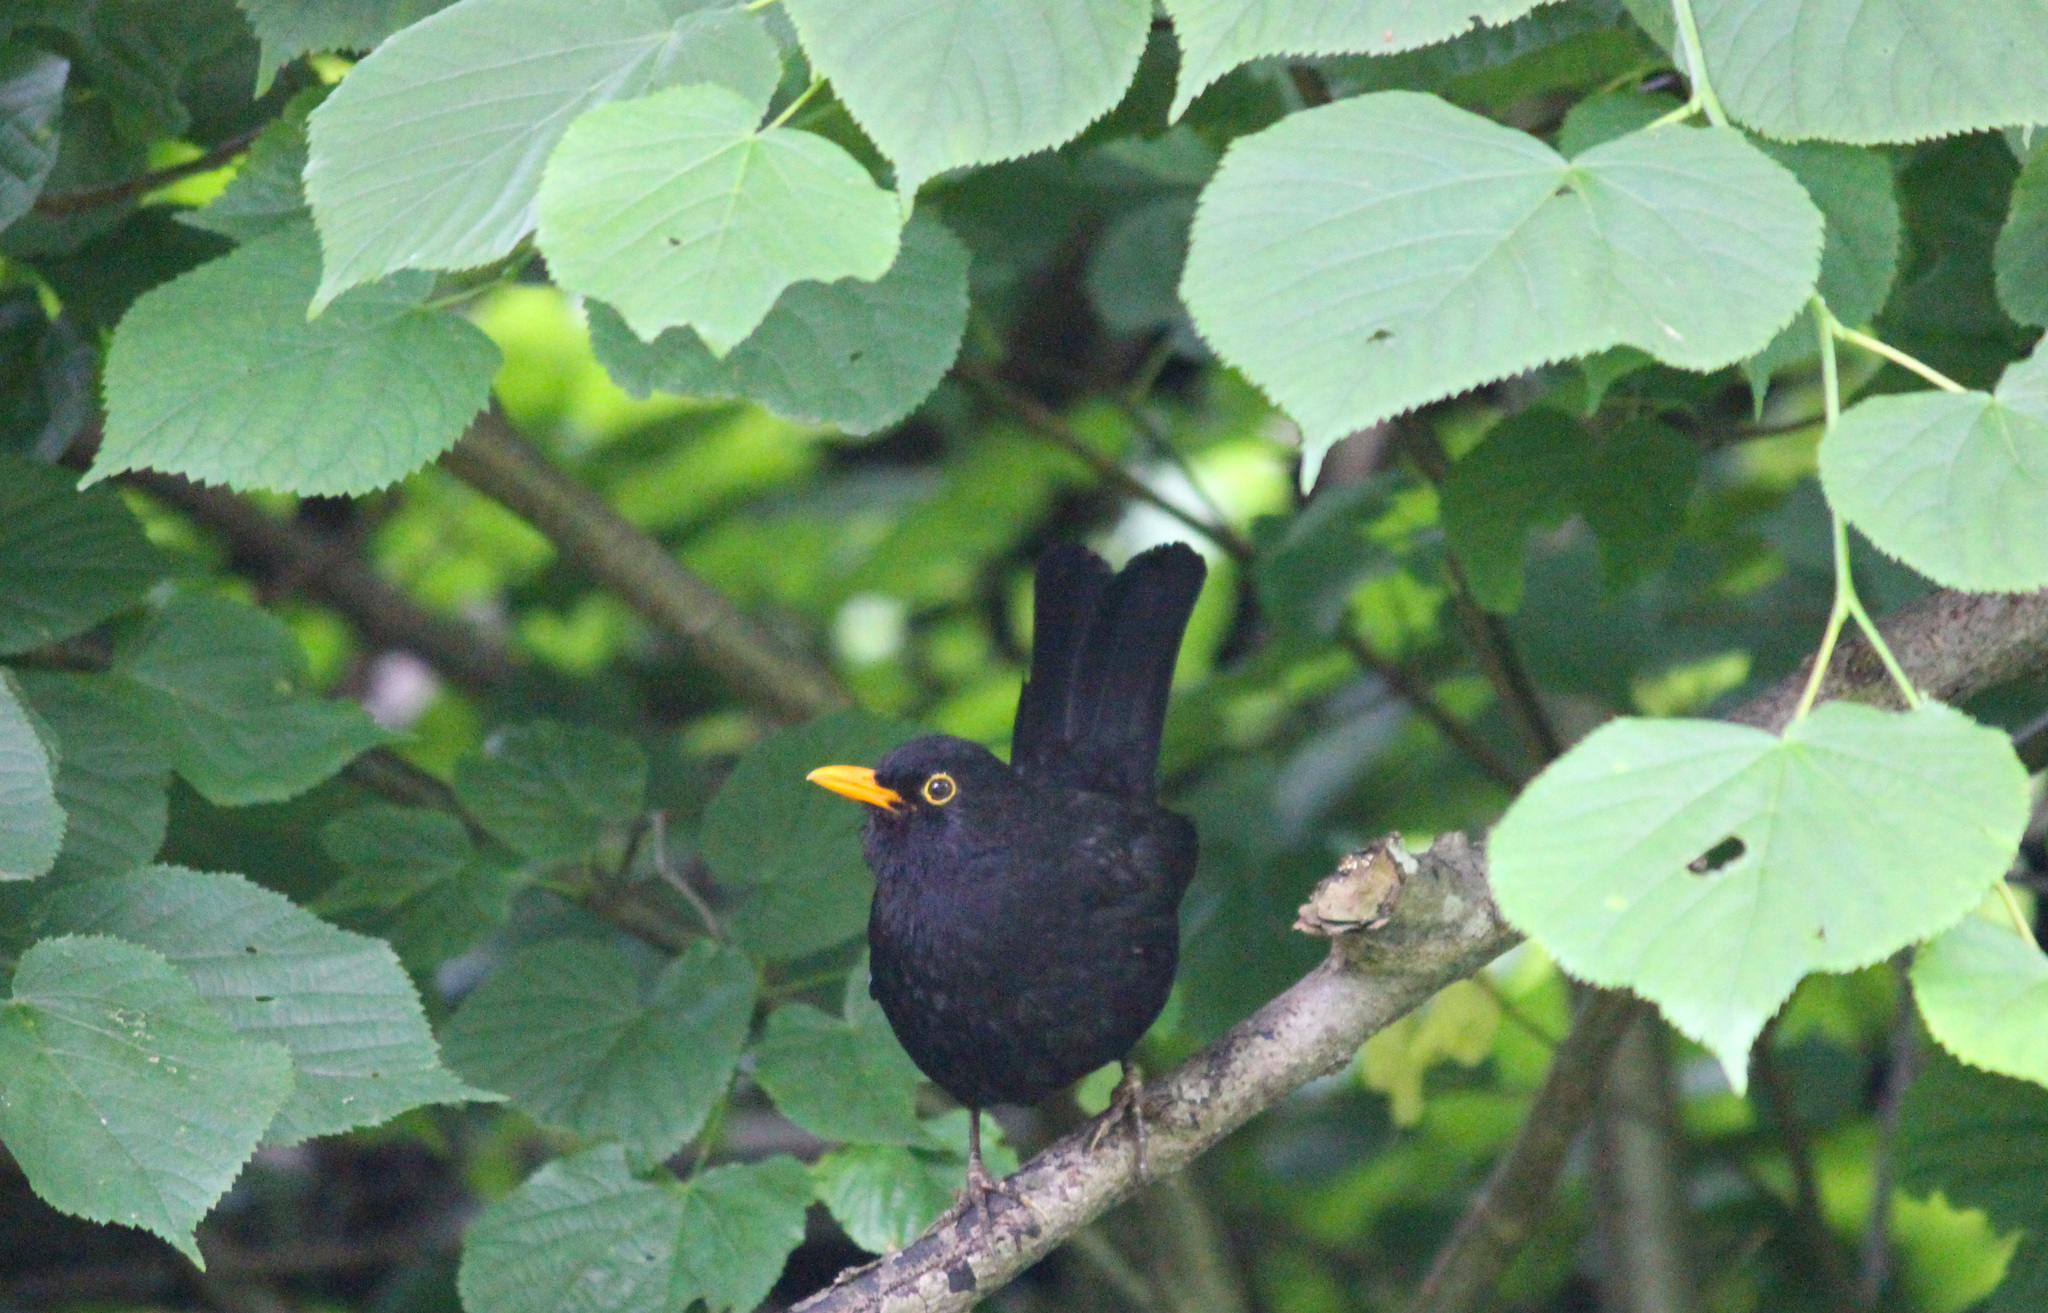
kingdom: Animalia
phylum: Chordata
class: Aves
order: Passeriformes
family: Turdidae
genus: Turdus
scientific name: Turdus merula
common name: Common blackbird
